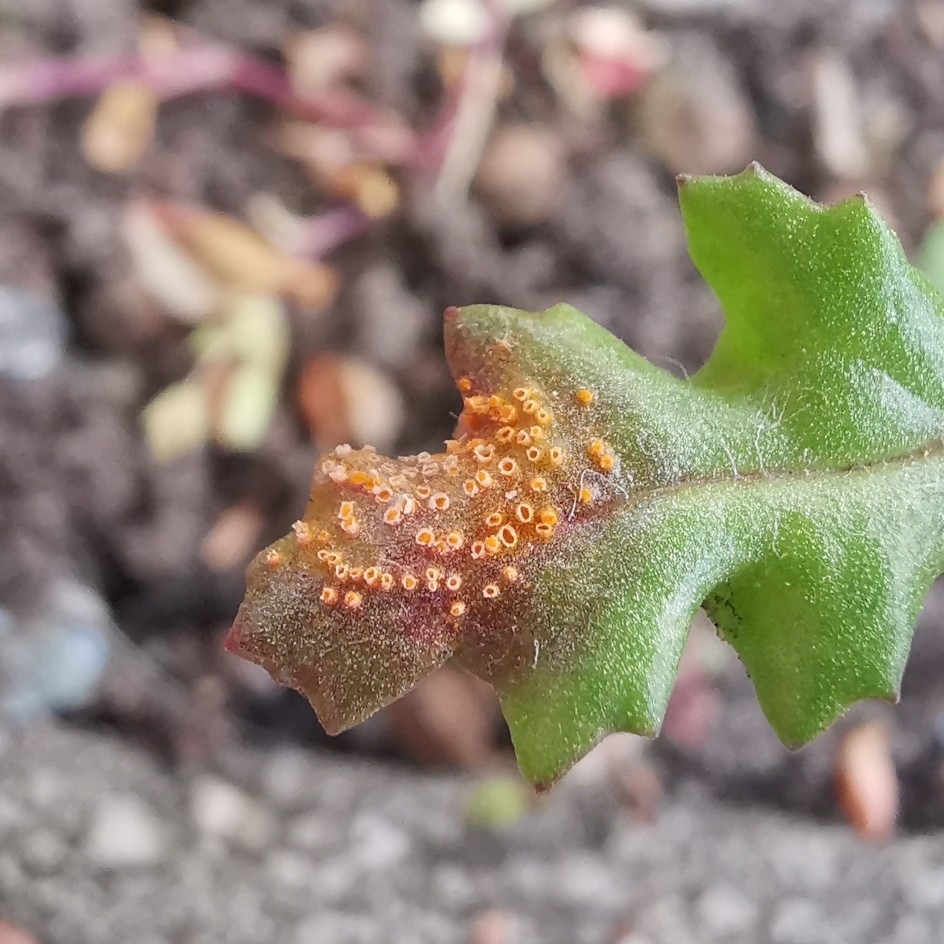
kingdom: Fungi
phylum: Basidiomycota
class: Pucciniomycetes
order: Pucciniales
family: Pucciniaceae
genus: Puccinia
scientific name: Puccinia lagenophorae
